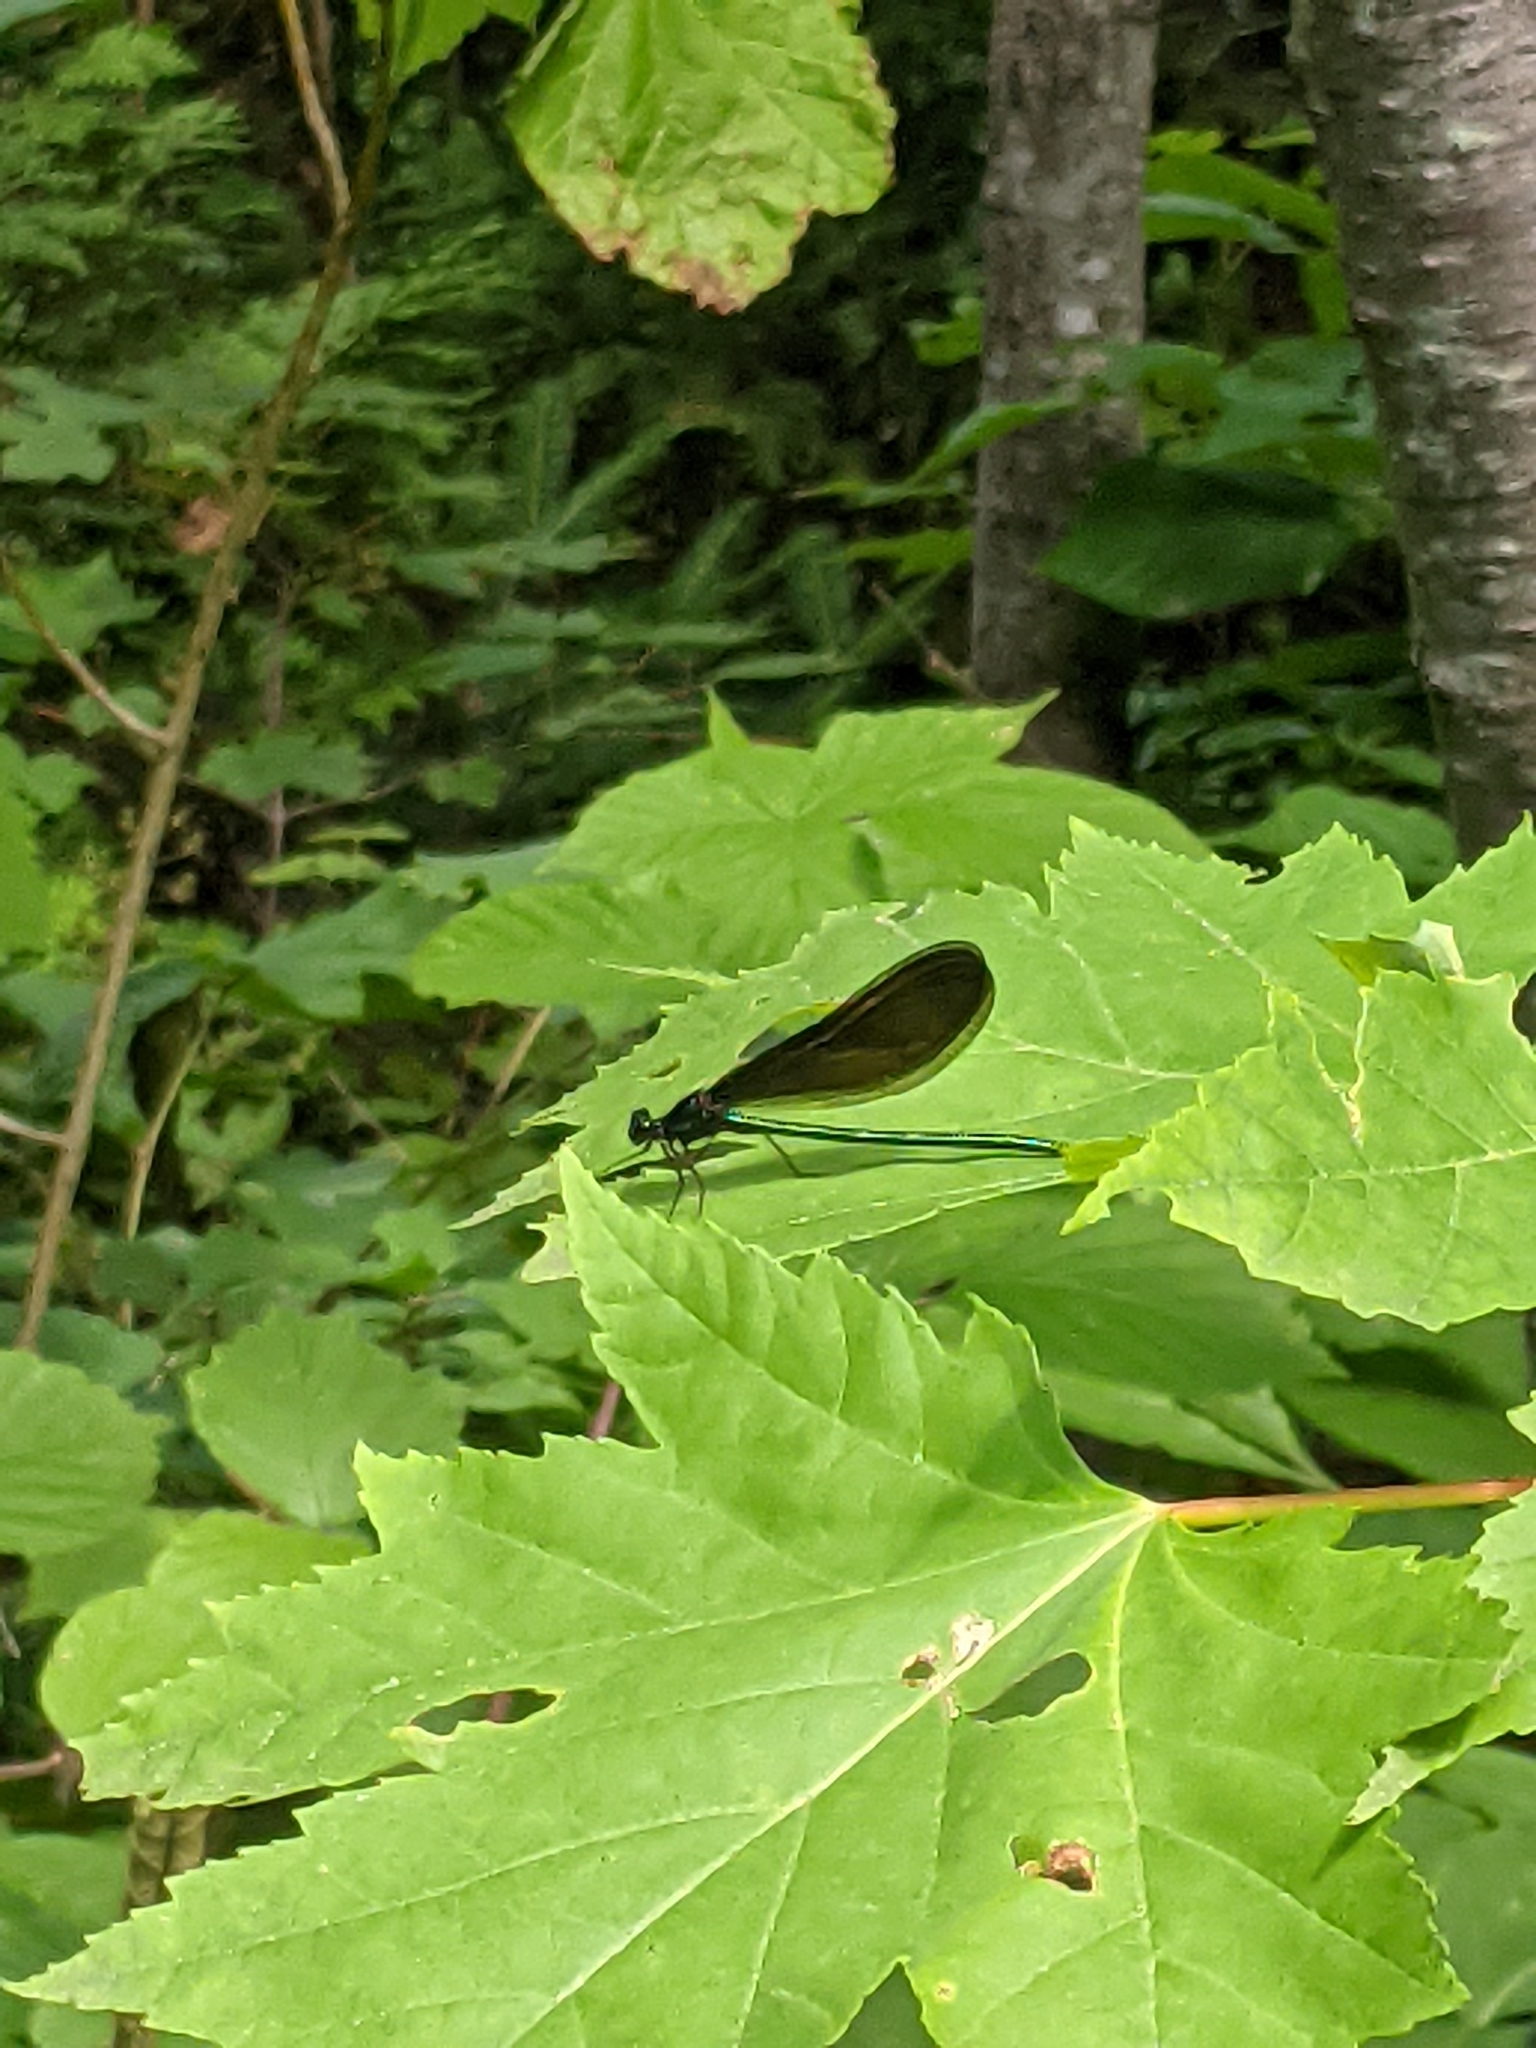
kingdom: Animalia
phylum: Arthropoda
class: Insecta
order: Odonata
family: Calopterygidae
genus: Calopteryx
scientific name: Calopteryx maculata
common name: Ebony jewelwing
